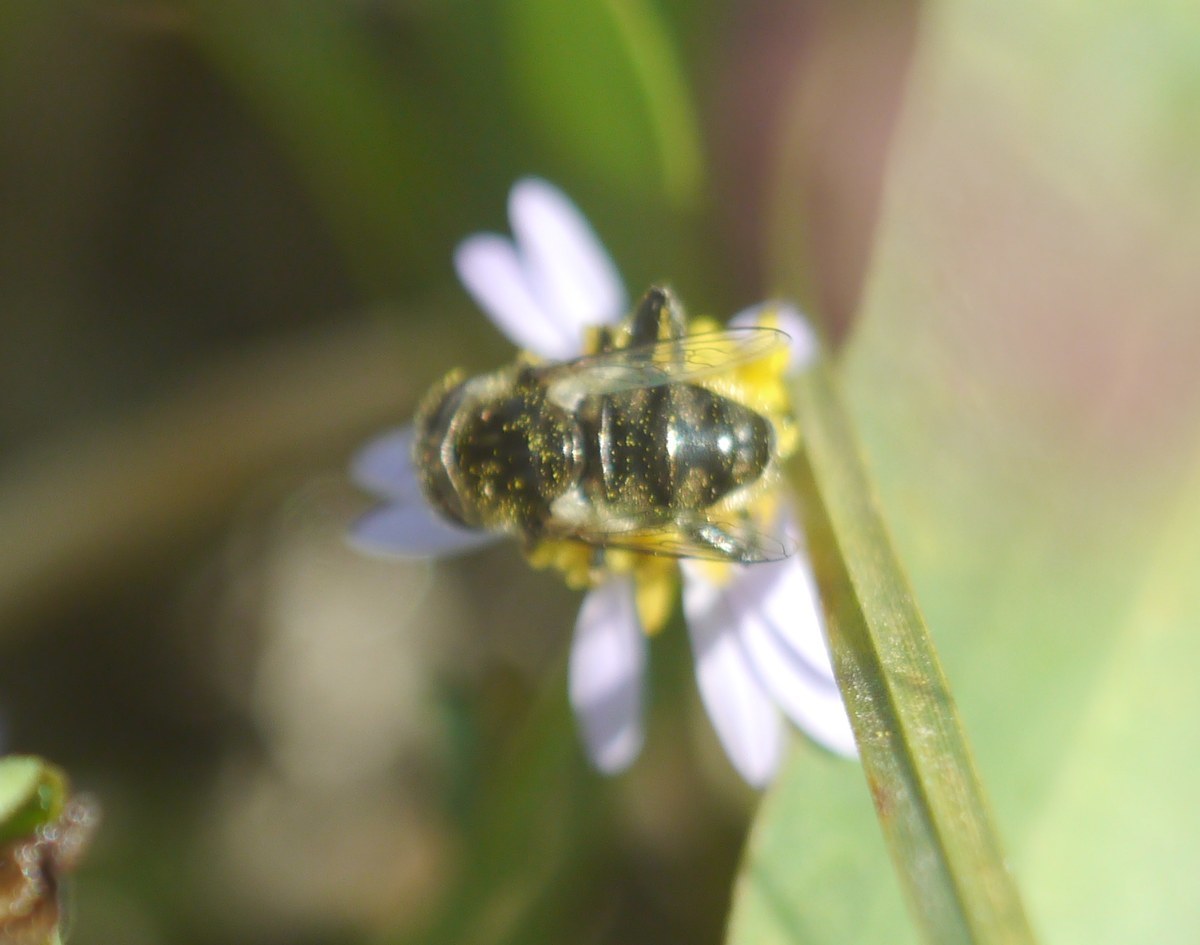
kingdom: Animalia
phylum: Arthropoda
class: Insecta
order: Diptera
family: Syrphidae
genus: Eristalinus
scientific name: Eristalinus sepulchralis
